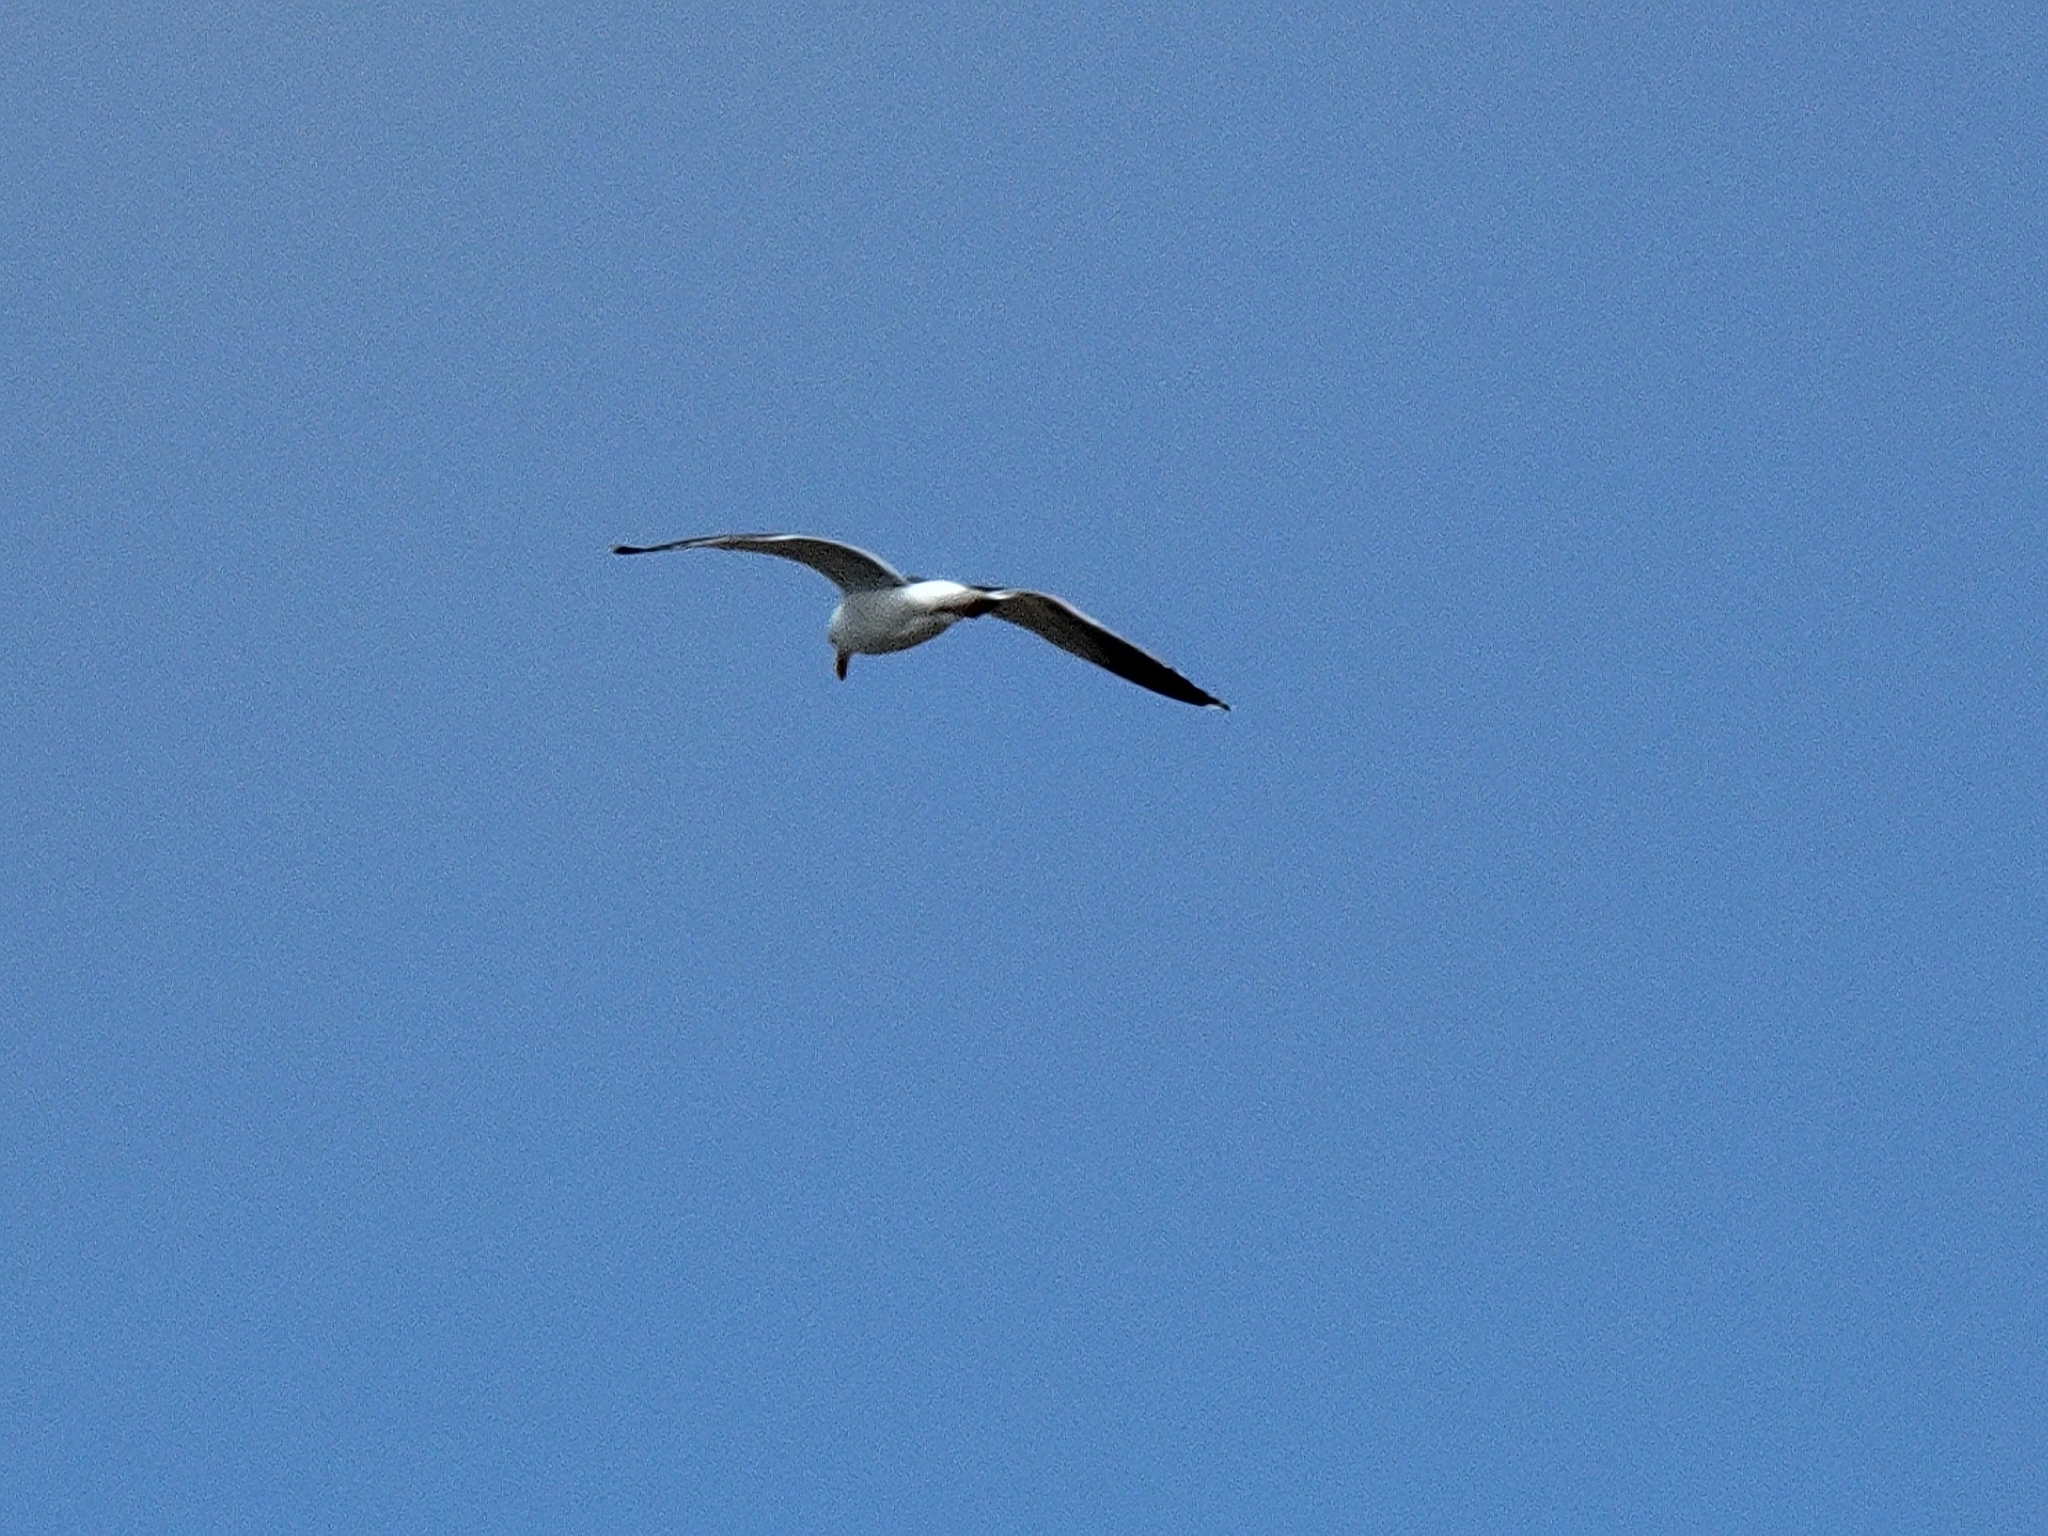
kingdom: Animalia
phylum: Chordata
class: Aves
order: Charadriiformes
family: Laridae
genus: Larus
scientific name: Larus occidentalis
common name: Western gull
